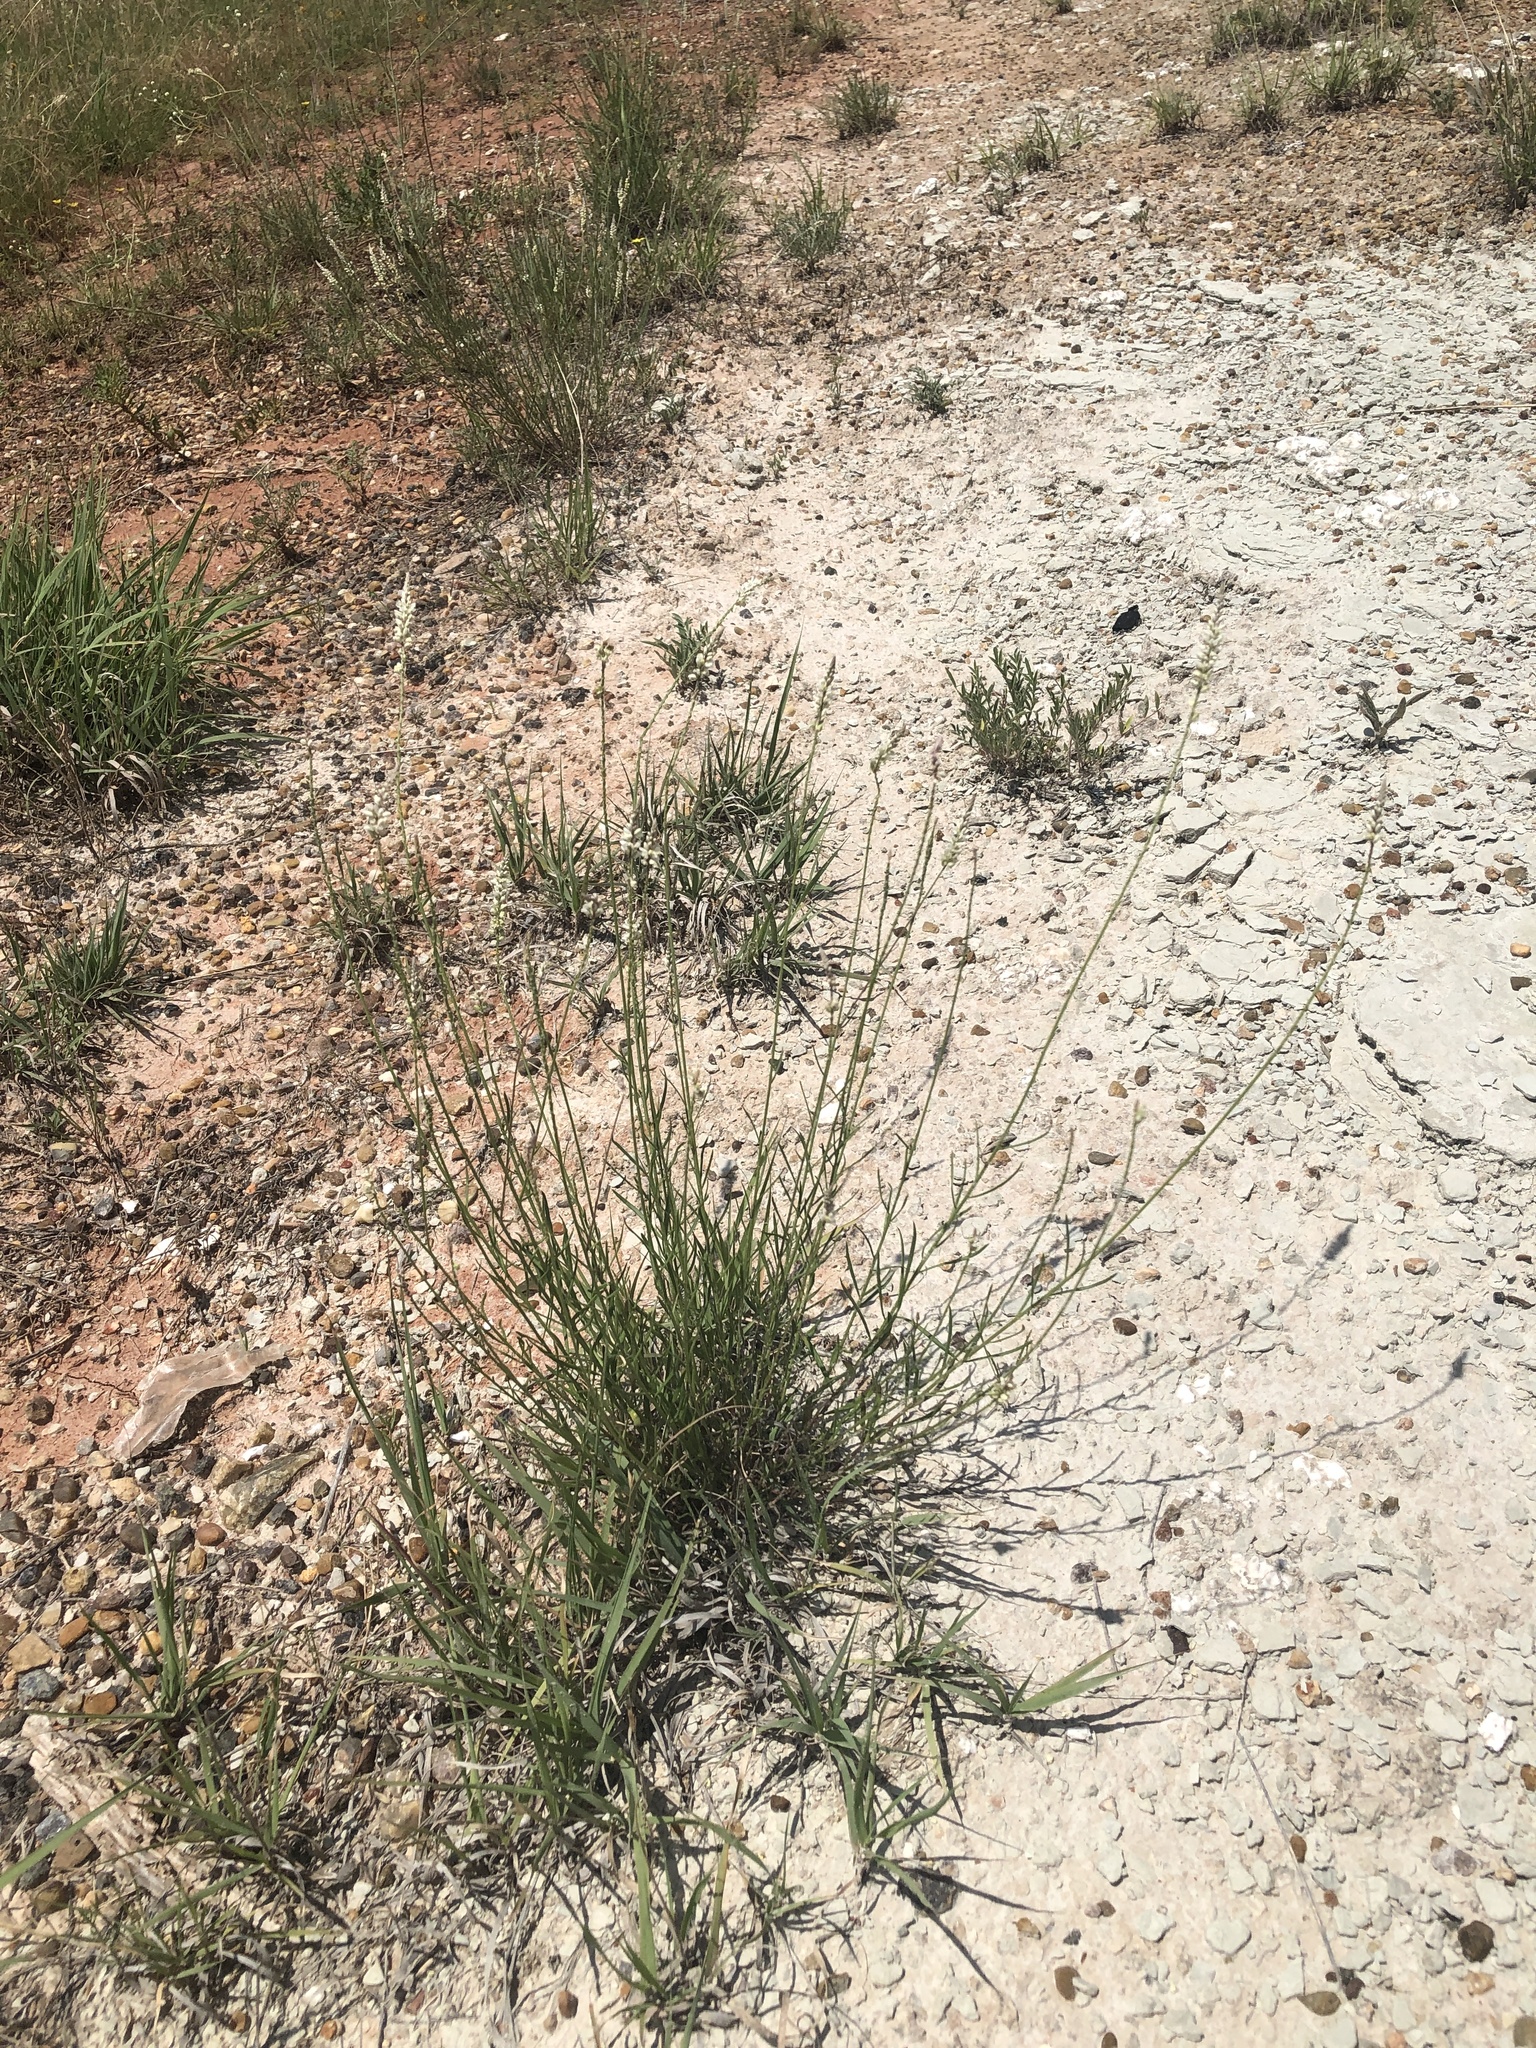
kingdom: Plantae
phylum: Tracheophyta
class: Magnoliopsida
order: Fabales
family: Polygalaceae
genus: Polygala
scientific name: Polygala alba
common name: White milkwort
